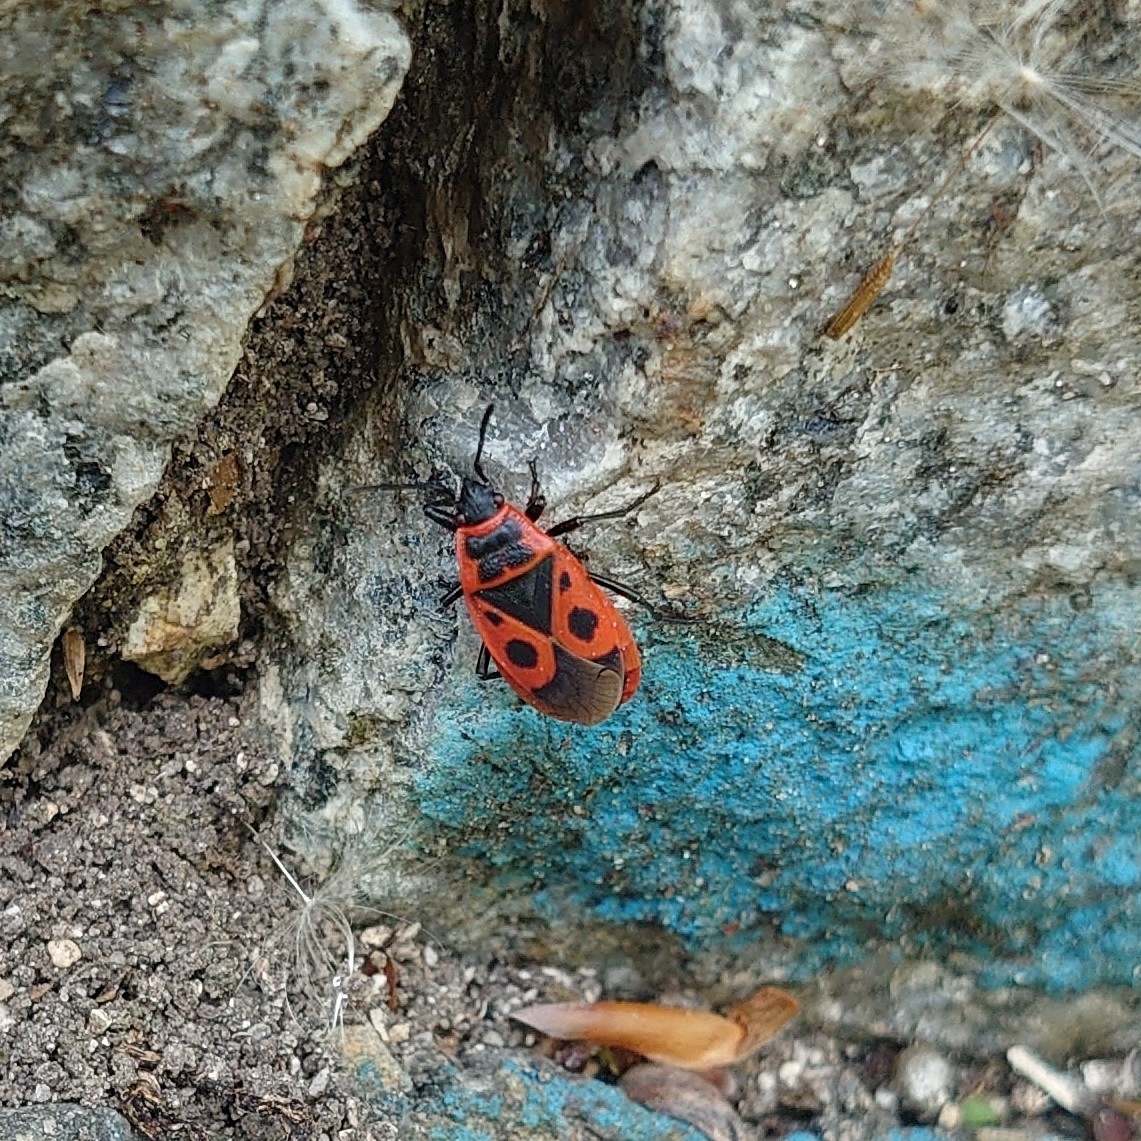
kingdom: Animalia
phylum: Arthropoda
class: Insecta
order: Hemiptera
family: Pyrrhocoridae
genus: Pyrrhocoris
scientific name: Pyrrhocoris apterus
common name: Firebug
